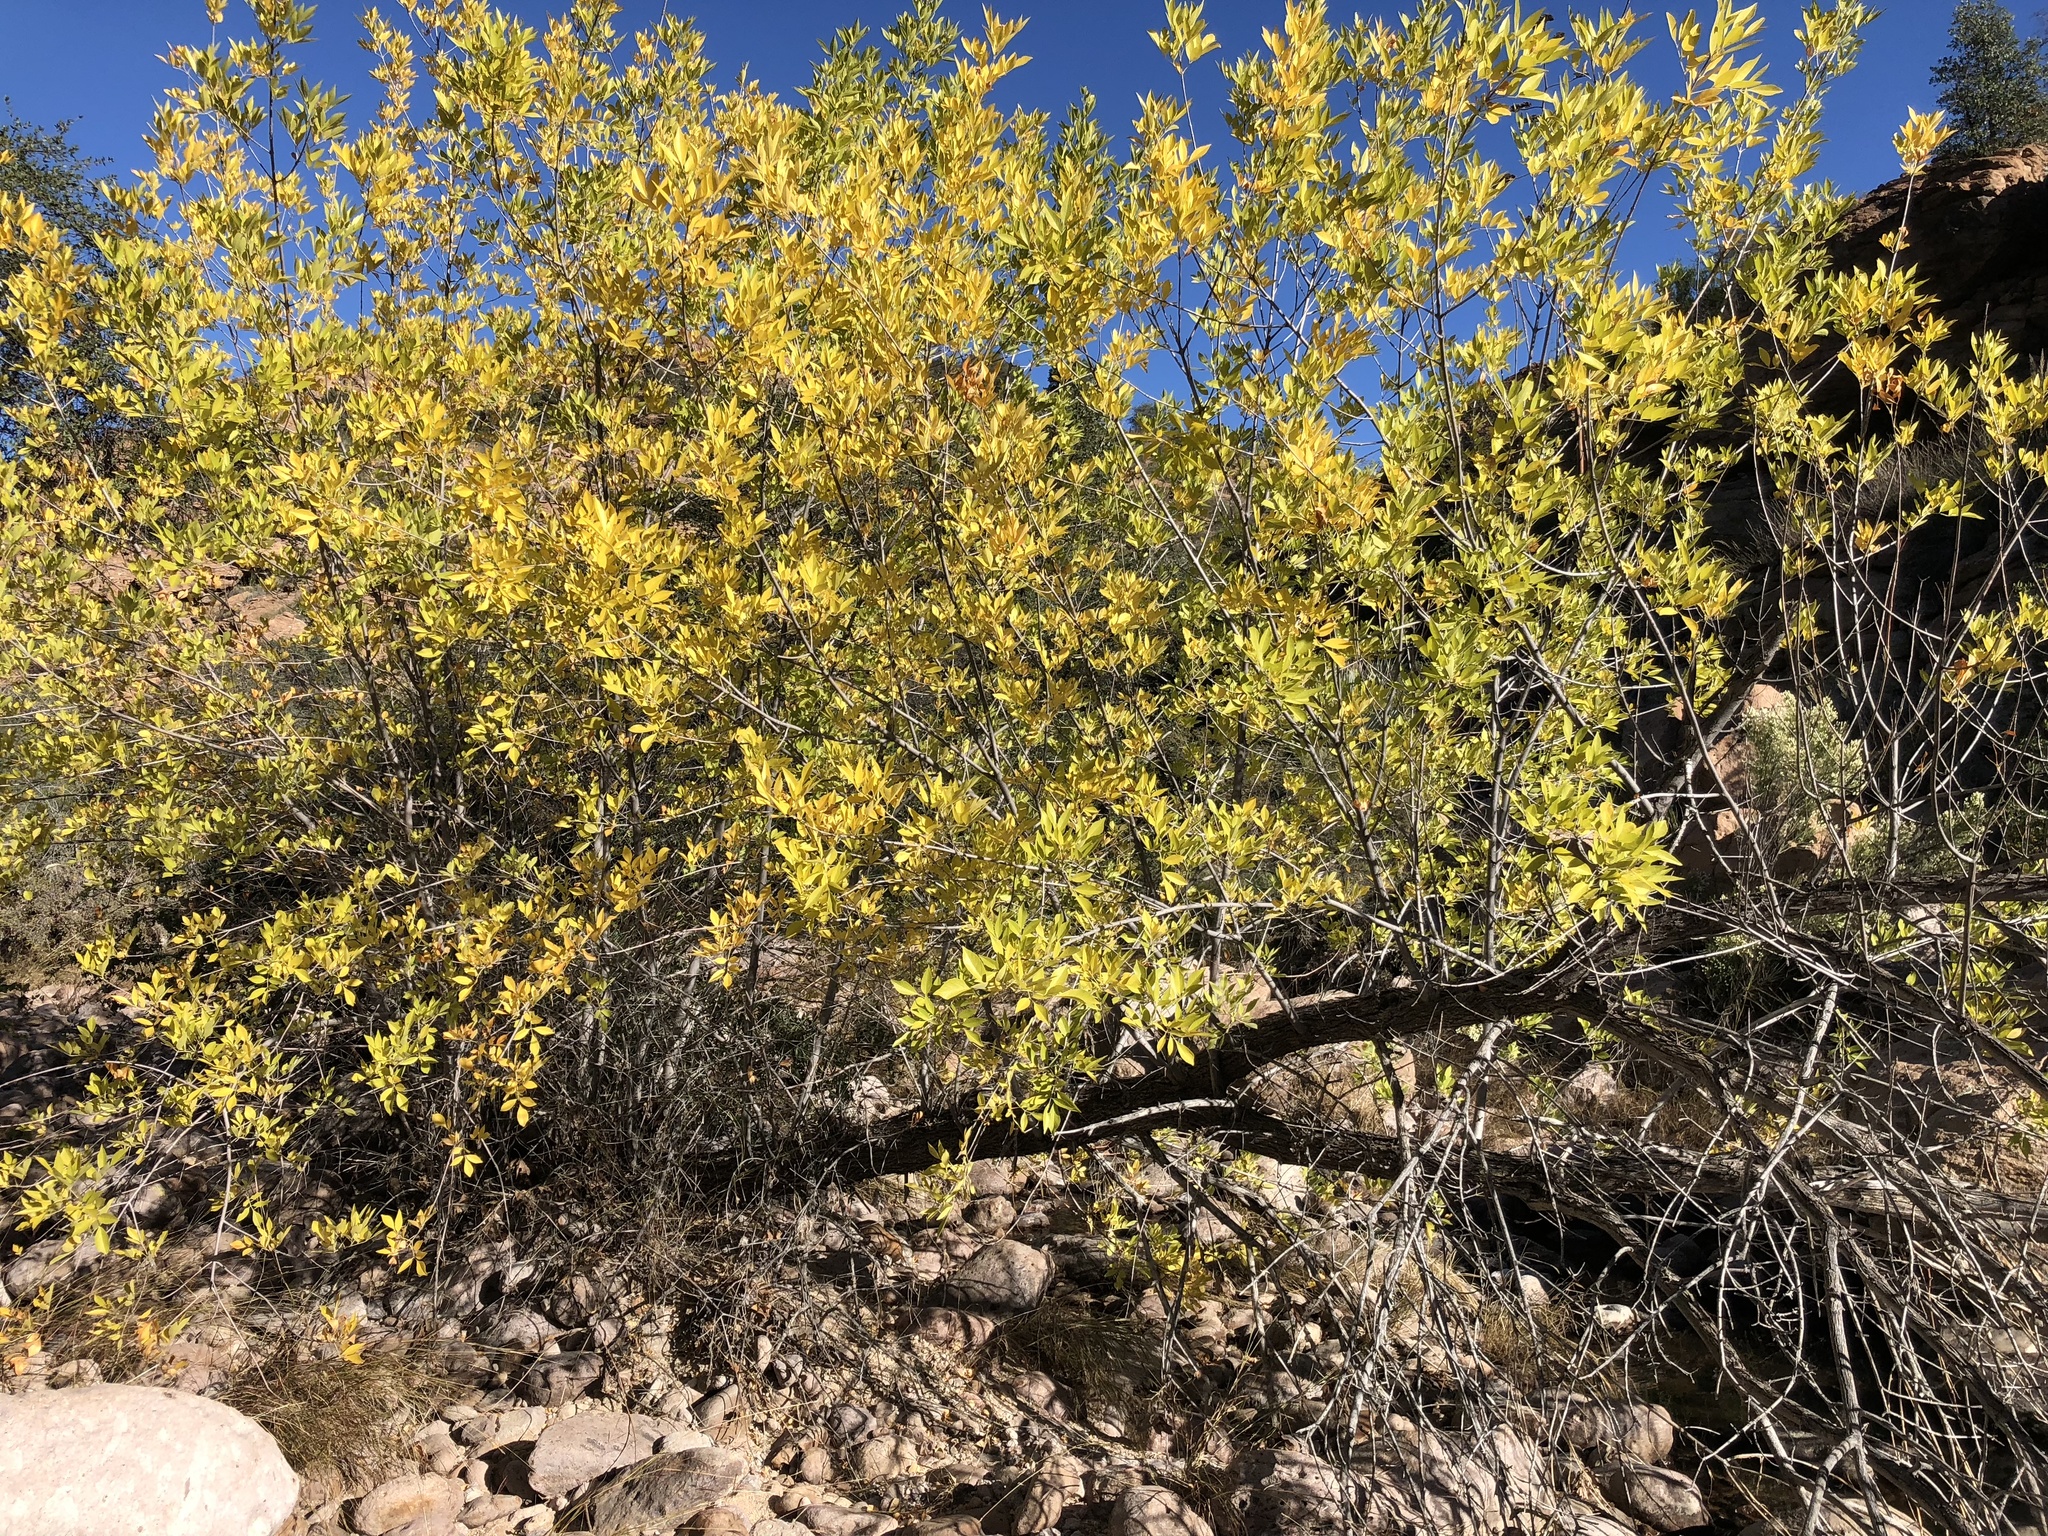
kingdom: Plantae
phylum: Tracheophyta
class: Magnoliopsida
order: Lamiales
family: Oleaceae
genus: Fraxinus
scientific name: Fraxinus velutina
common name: Arizon ash
